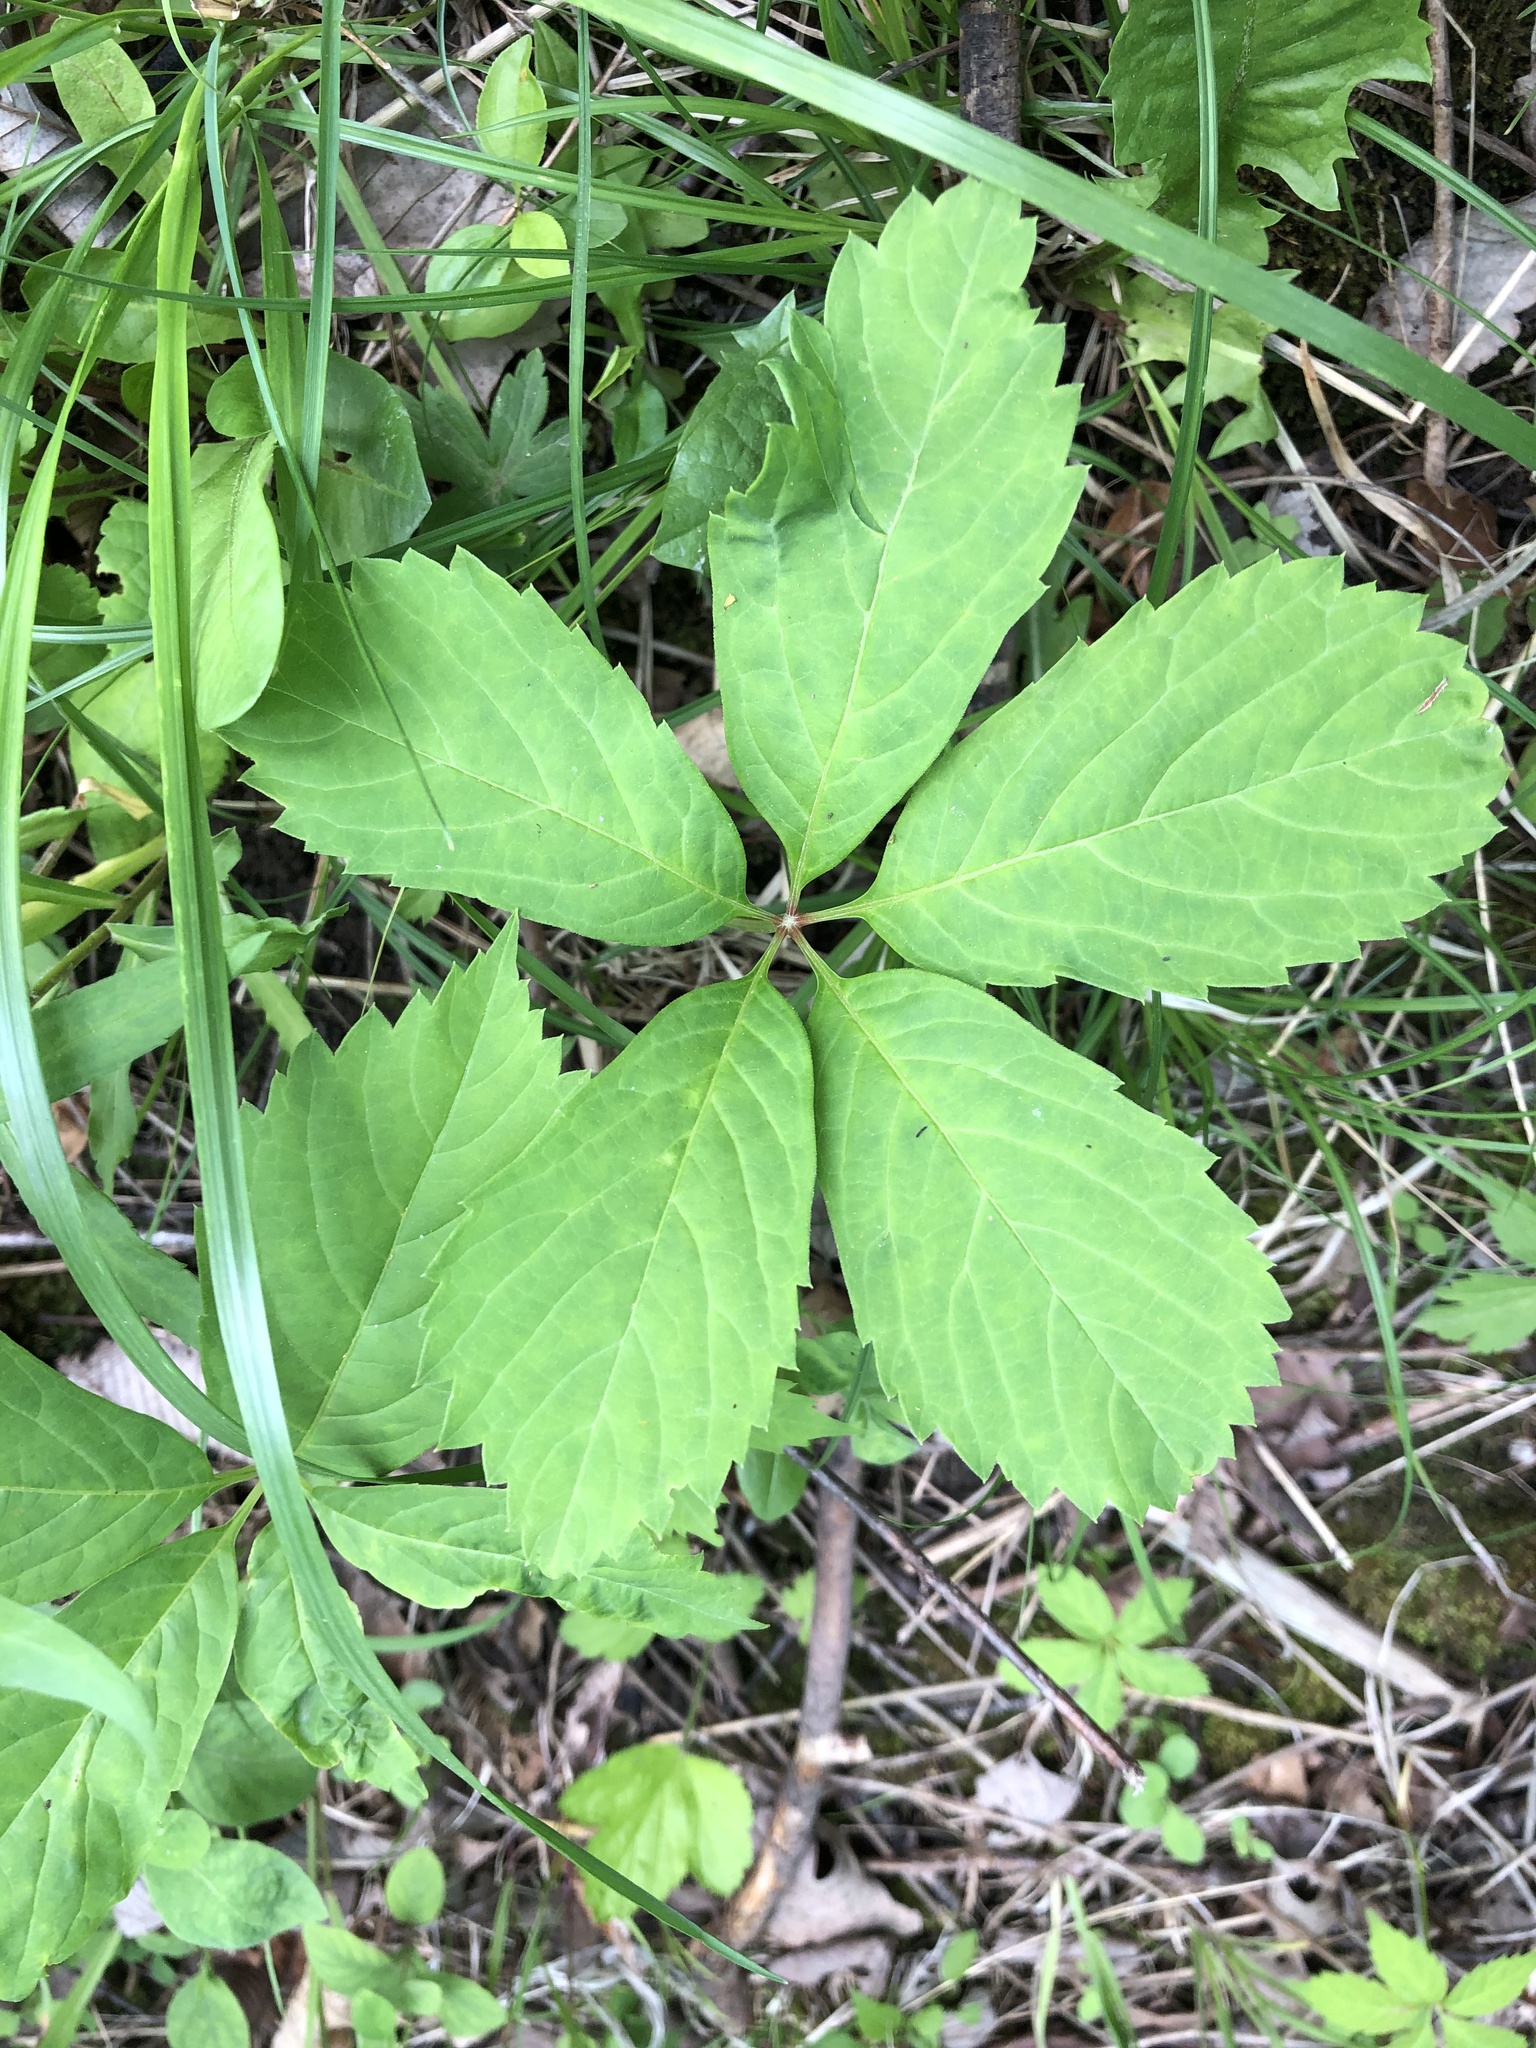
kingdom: Plantae
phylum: Tracheophyta
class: Magnoliopsida
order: Vitales
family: Vitaceae
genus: Parthenocissus
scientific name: Parthenocissus quinquefolia
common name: Virginia-creeper
